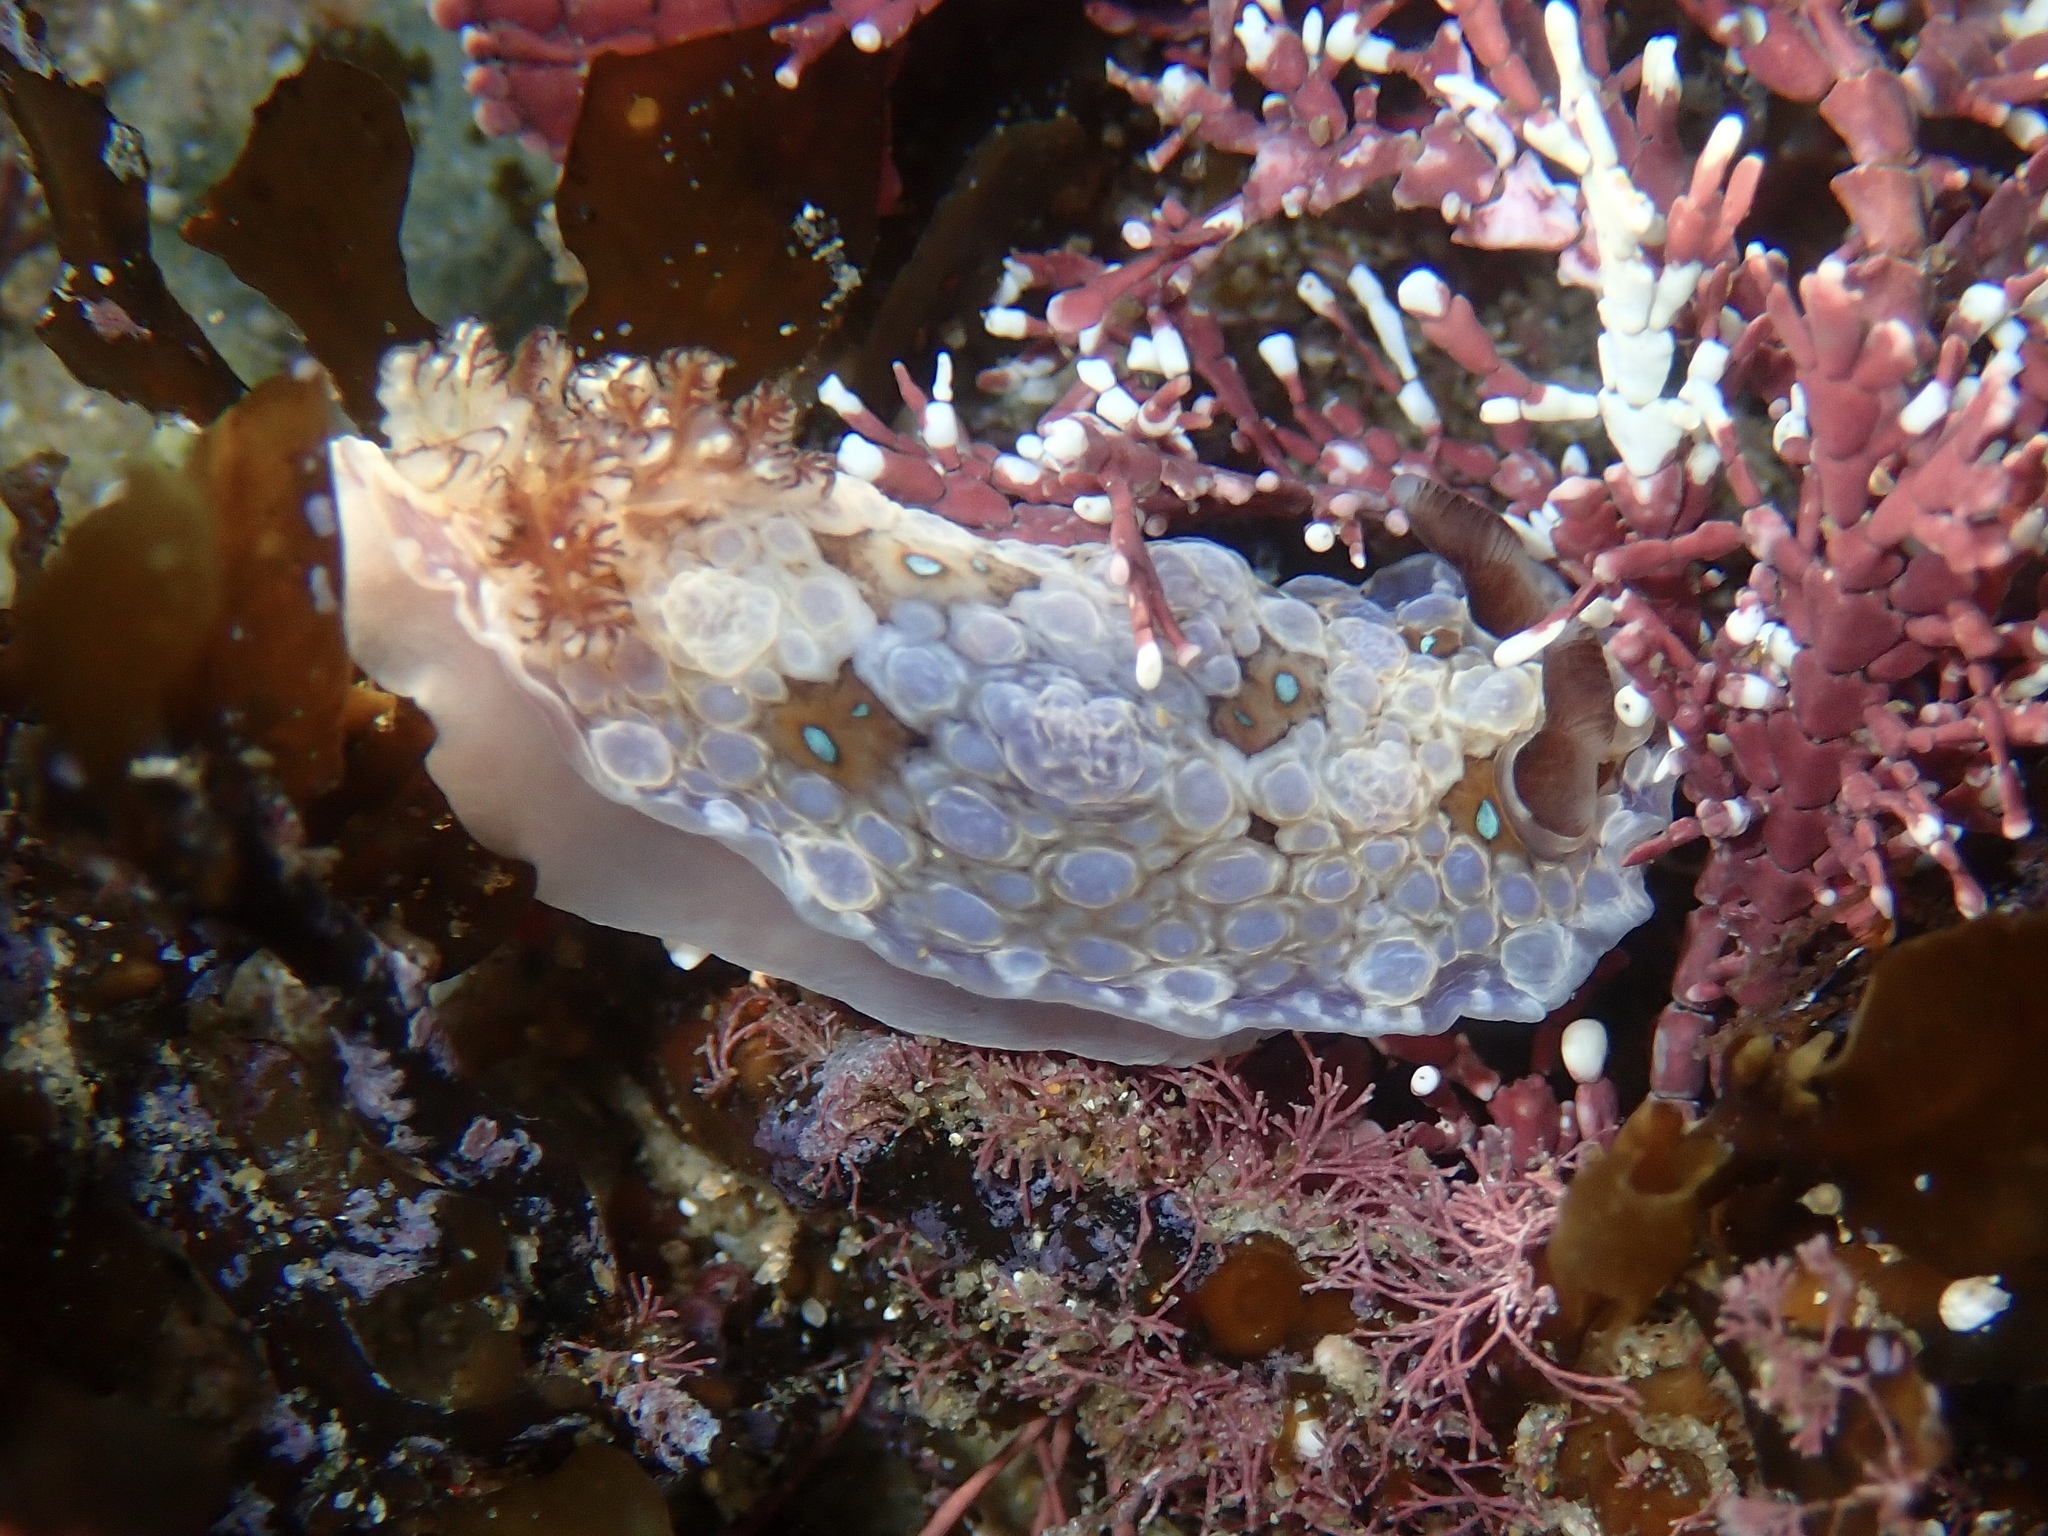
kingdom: Animalia
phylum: Mollusca
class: Gastropoda
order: Nudibranchia
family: Dendrodorididae
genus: Dendrodoris
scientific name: Dendrodoris krusensternii
